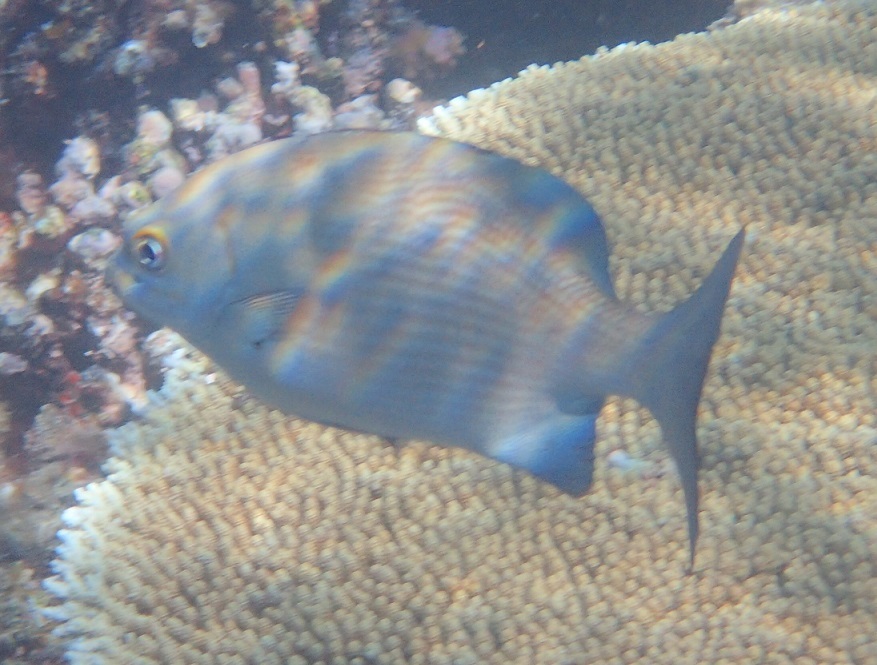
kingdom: Animalia
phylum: Chordata
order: Perciformes
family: Kyphosidae
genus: Kyphosus
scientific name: Kyphosus cinerascens
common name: Topsail drummer
